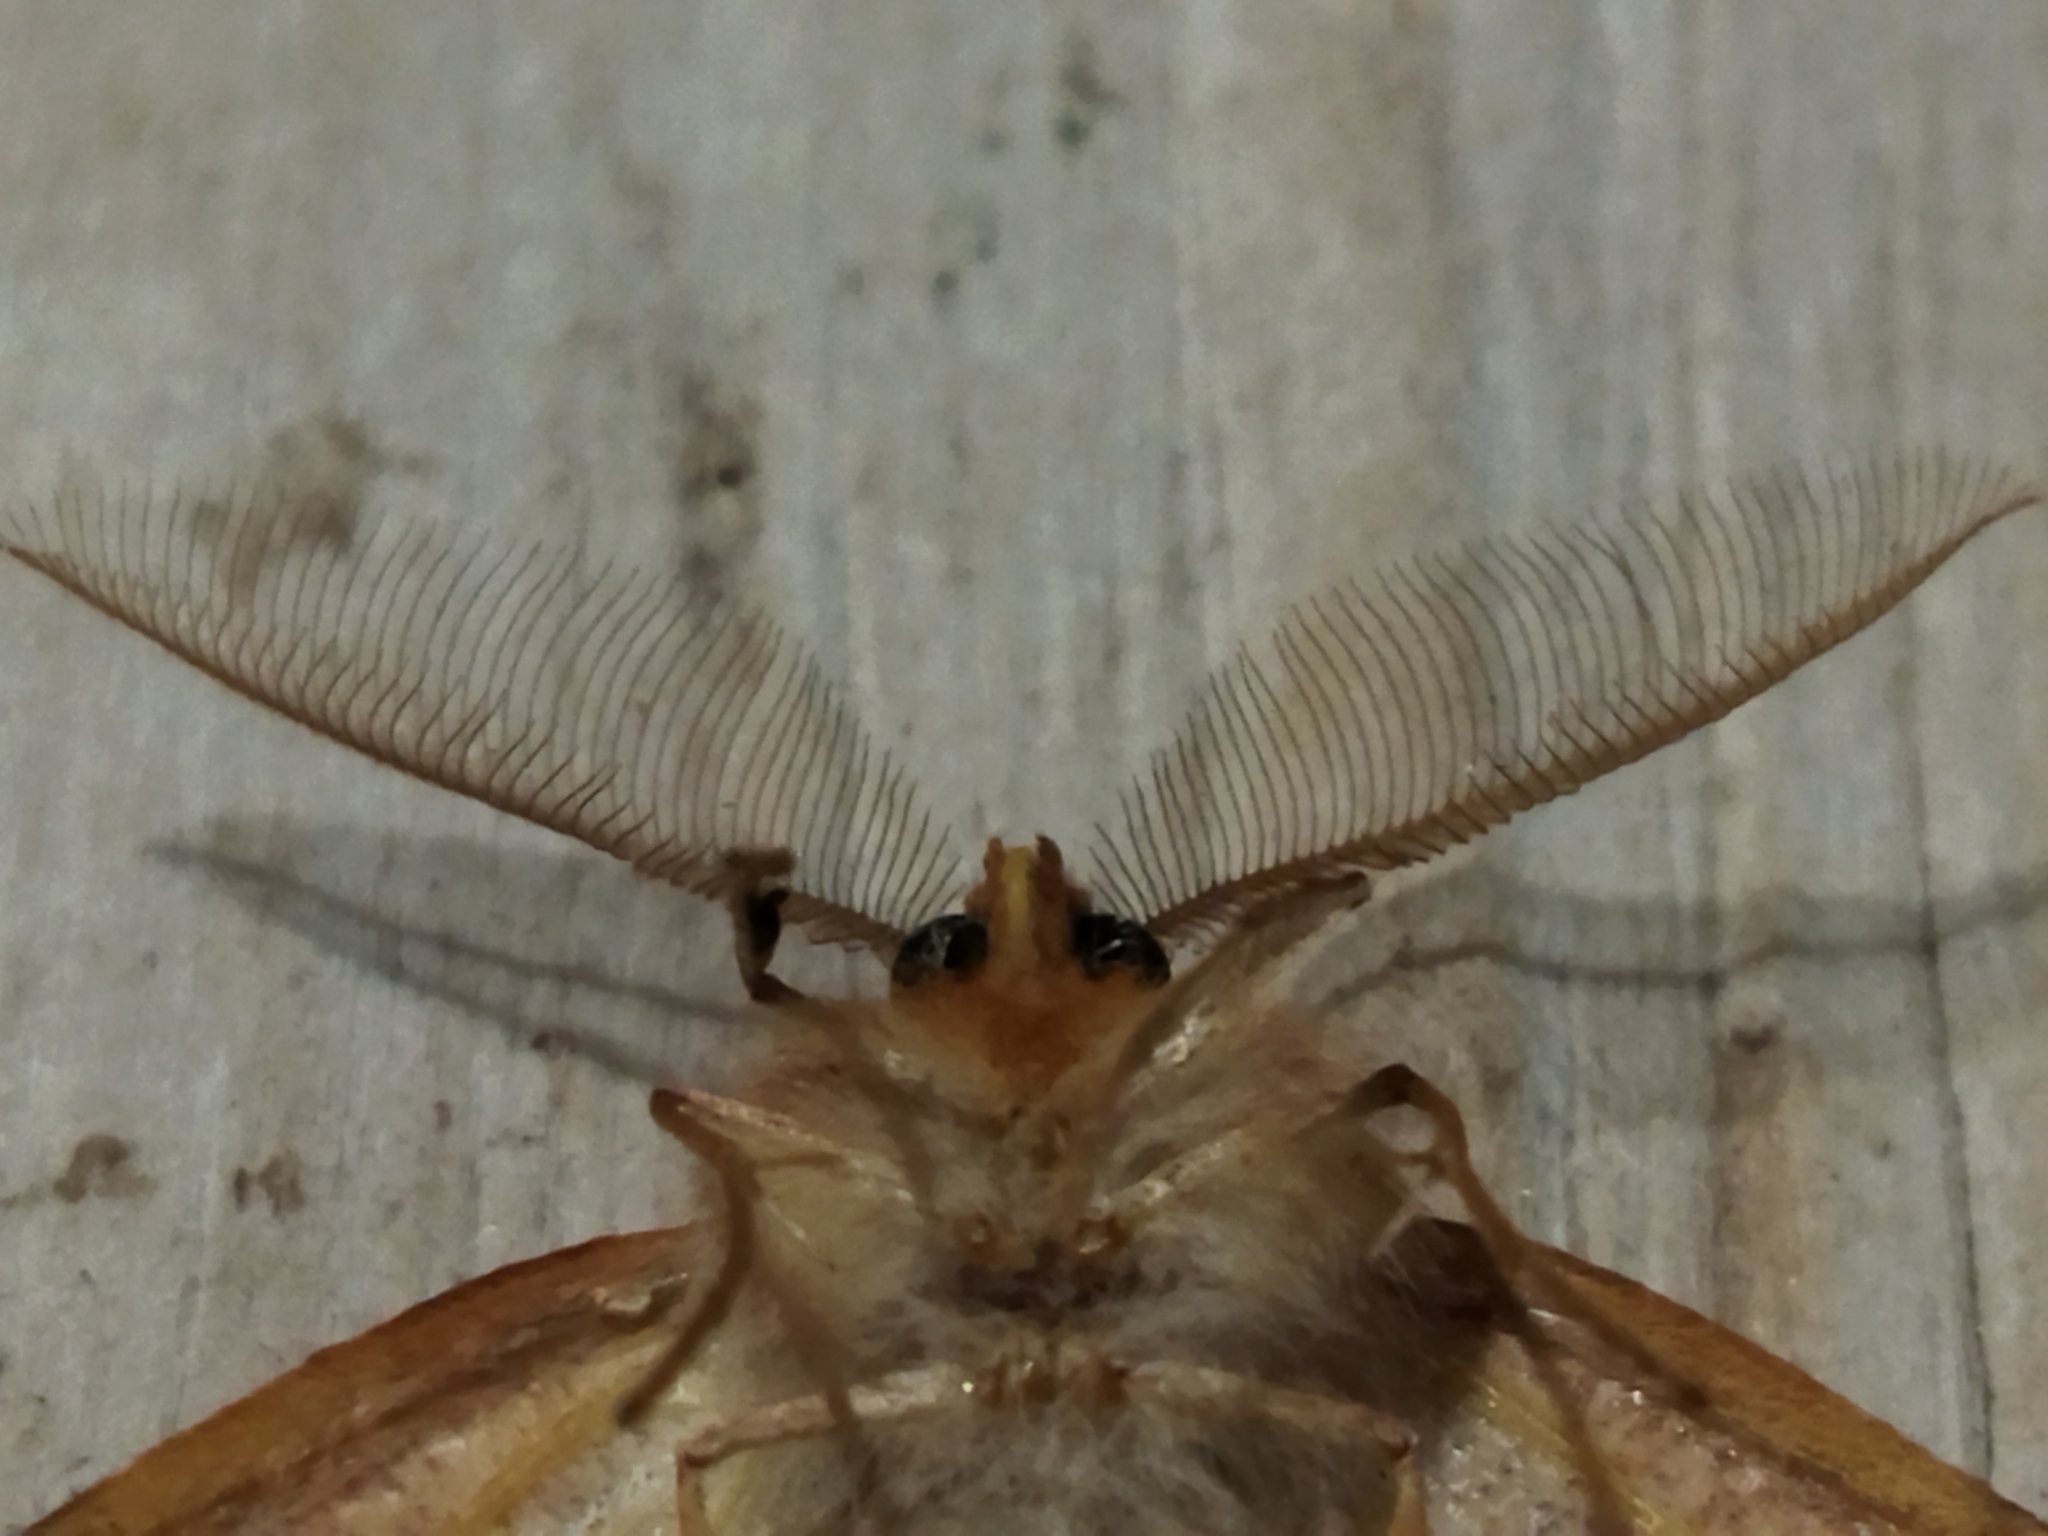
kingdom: Animalia
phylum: Arthropoda
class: Insecta
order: Lepidoptera
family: Geometridae
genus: Colotois
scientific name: Colotois pennaria
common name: Feathered thorn
